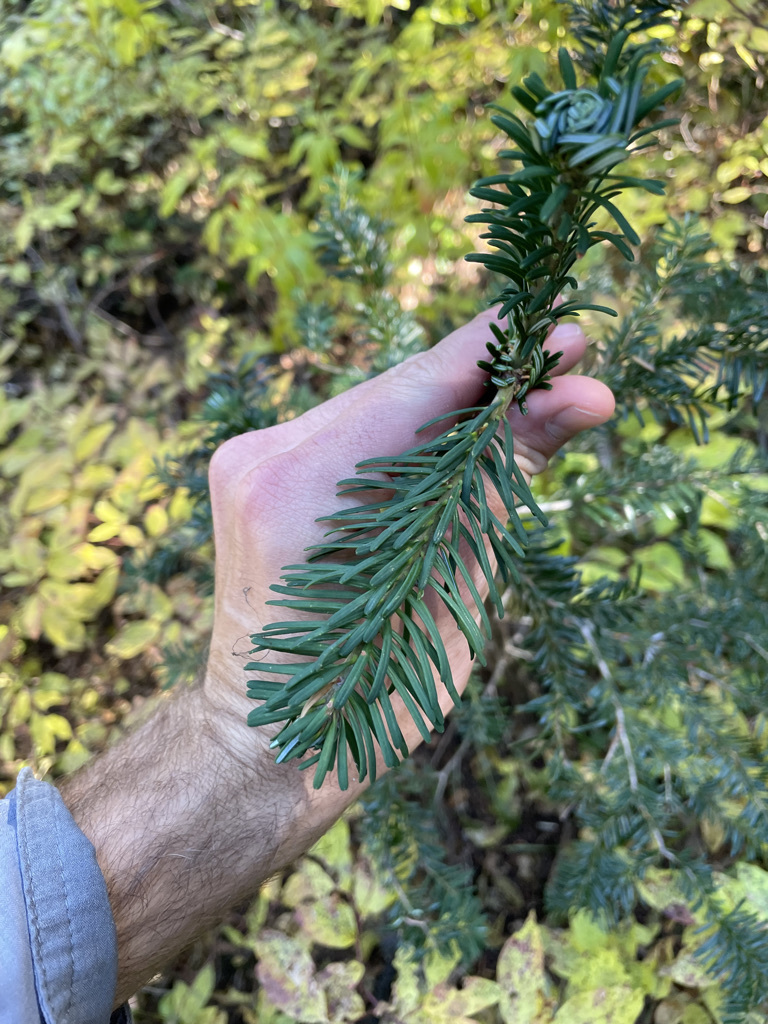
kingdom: Plantae
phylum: Tracheophyta
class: Pinopsida
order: Pinales
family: Pinaceae
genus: Abies
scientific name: Abies amabilis
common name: Pacific silver fir
